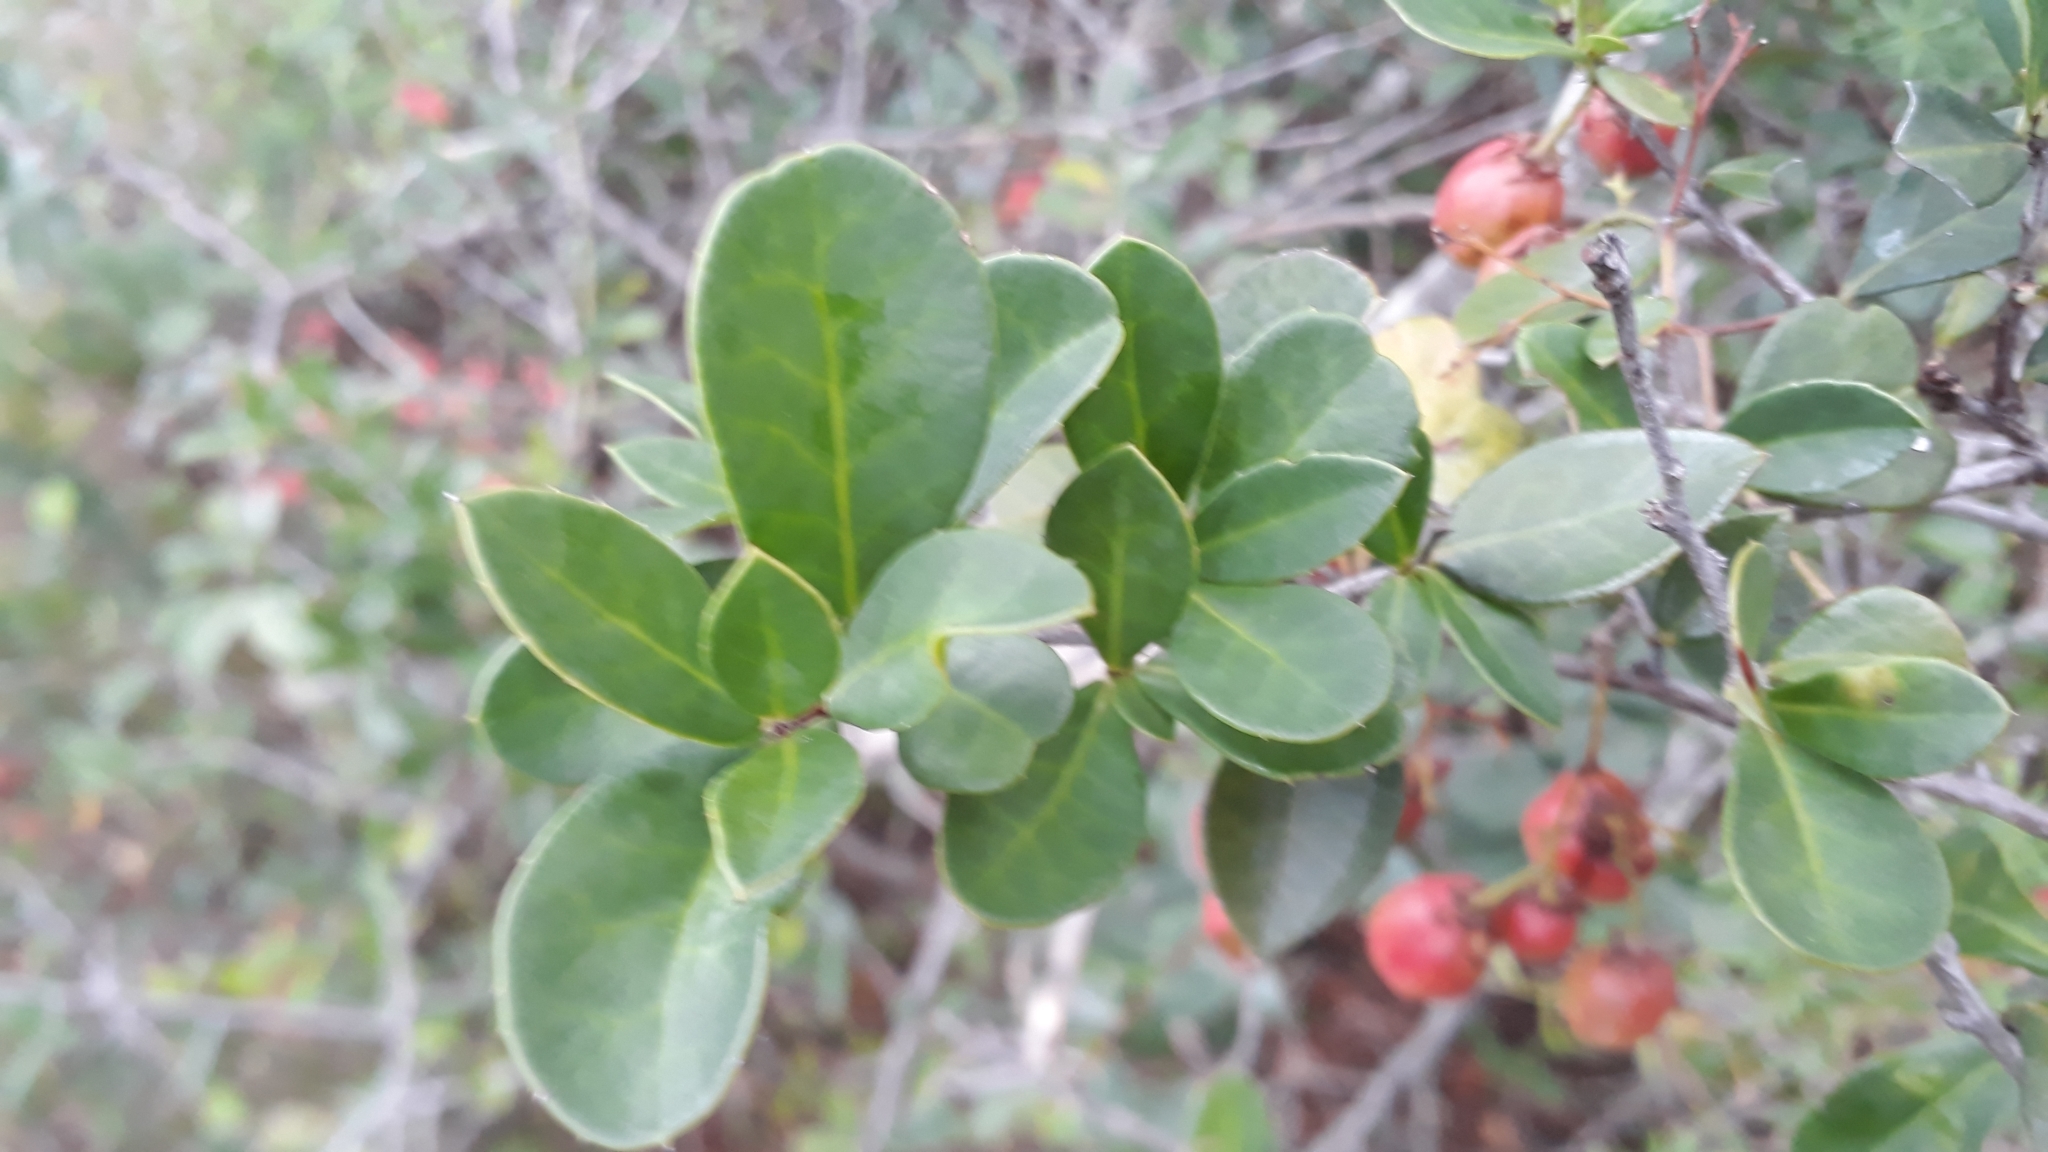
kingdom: Plantae
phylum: Tracheophyta
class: Magnoliopsida
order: Celastrales
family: Celastraceae
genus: Putterlickia
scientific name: Putterlickia pyracantha
